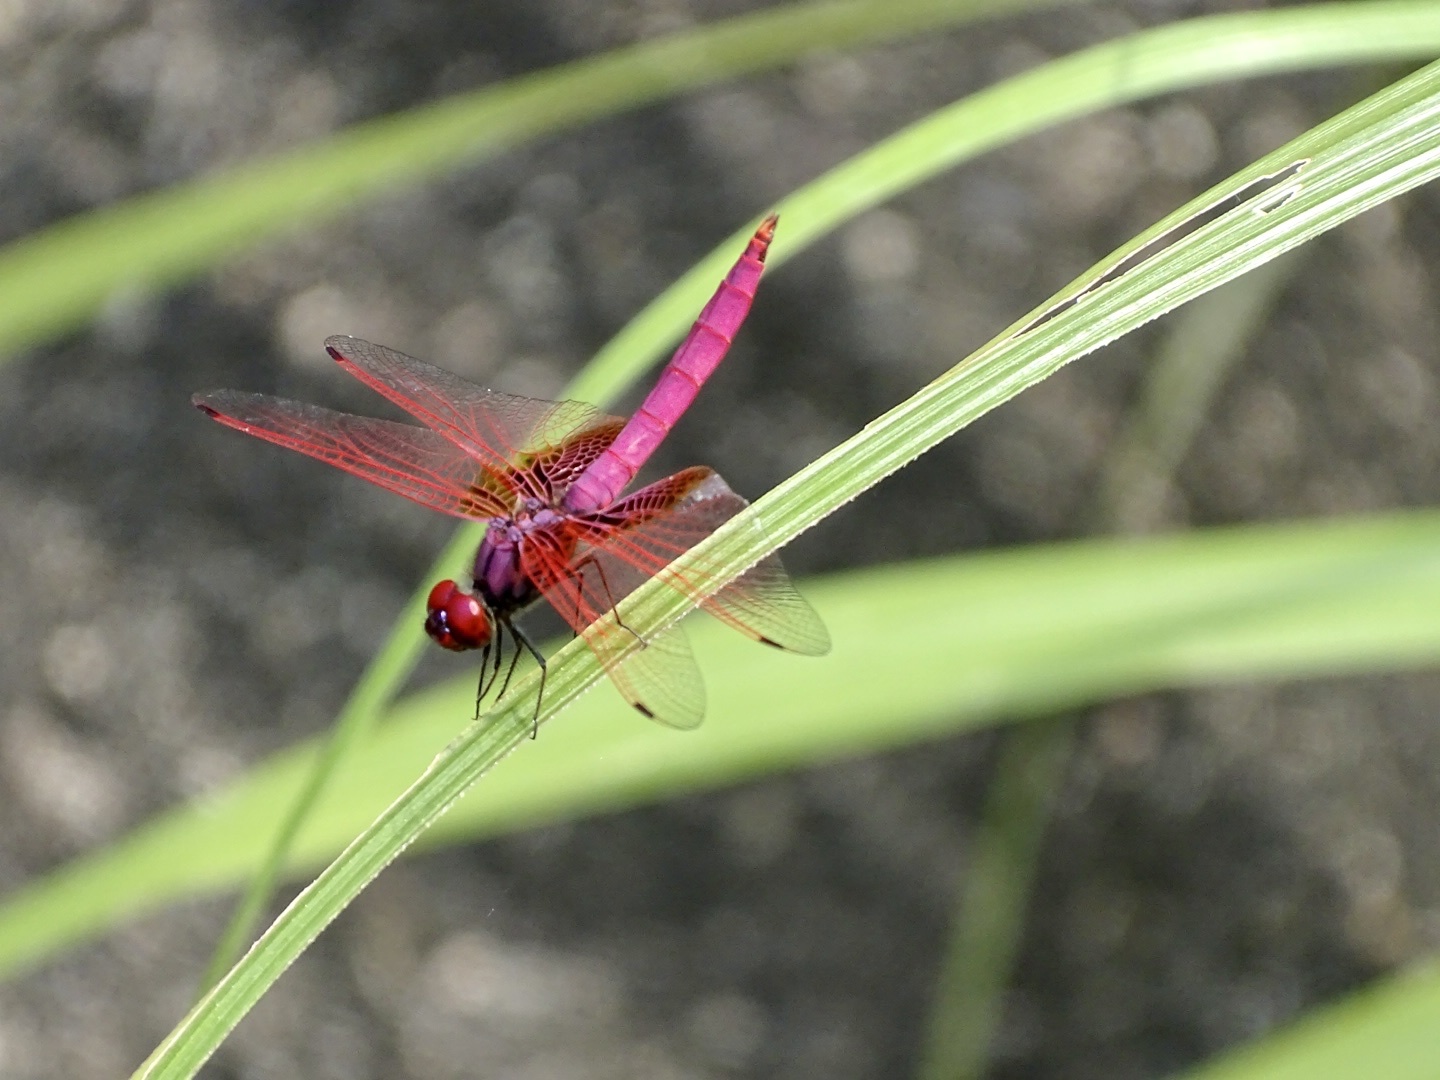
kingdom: Animalia
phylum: Arthropoda
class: Insecta
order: Odonata
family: Libellulidae
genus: Trithemis
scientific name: Trithemis aurora
